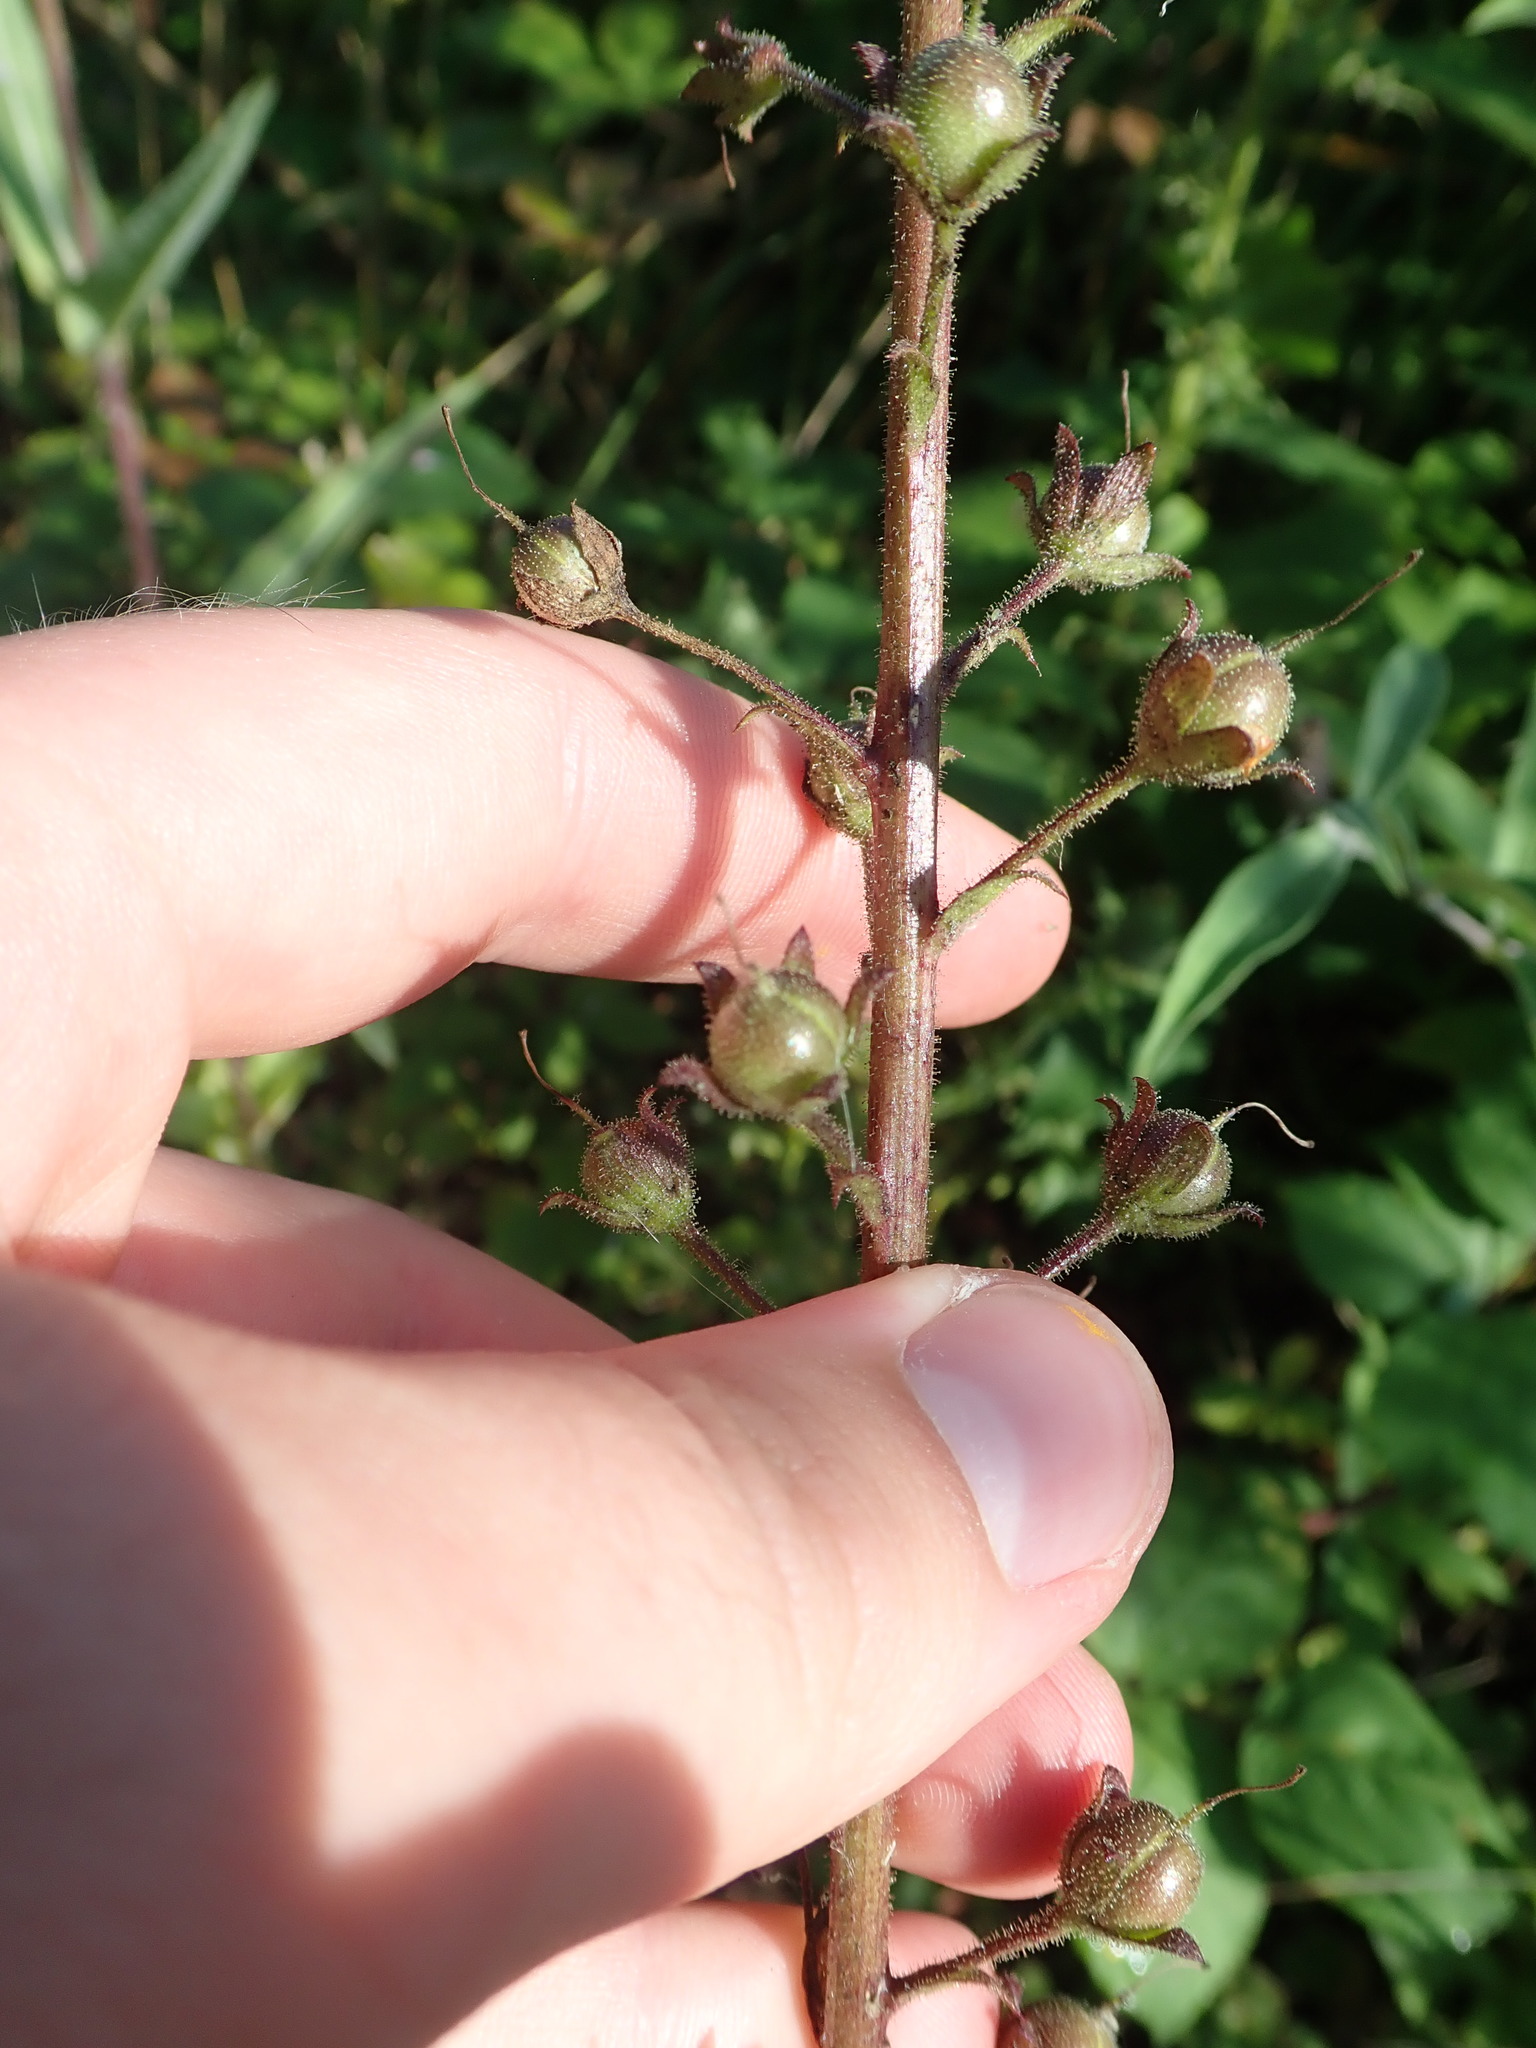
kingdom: Plantae
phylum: Tracheophyta
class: Magnoliopsida
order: Lamiales
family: Scrophulariaceae
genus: Verbascum
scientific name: Verbascum blattaria
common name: Moth mullein
